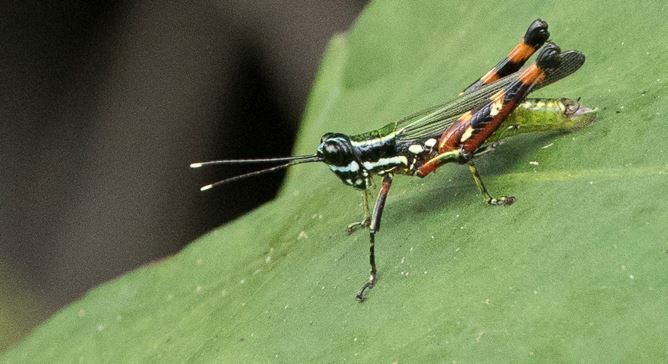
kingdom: Animalia
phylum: Arthropoda
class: Insecta
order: Orthoptera
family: Acrididae
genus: Tetrataenia
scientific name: Tetrataenia surinama
